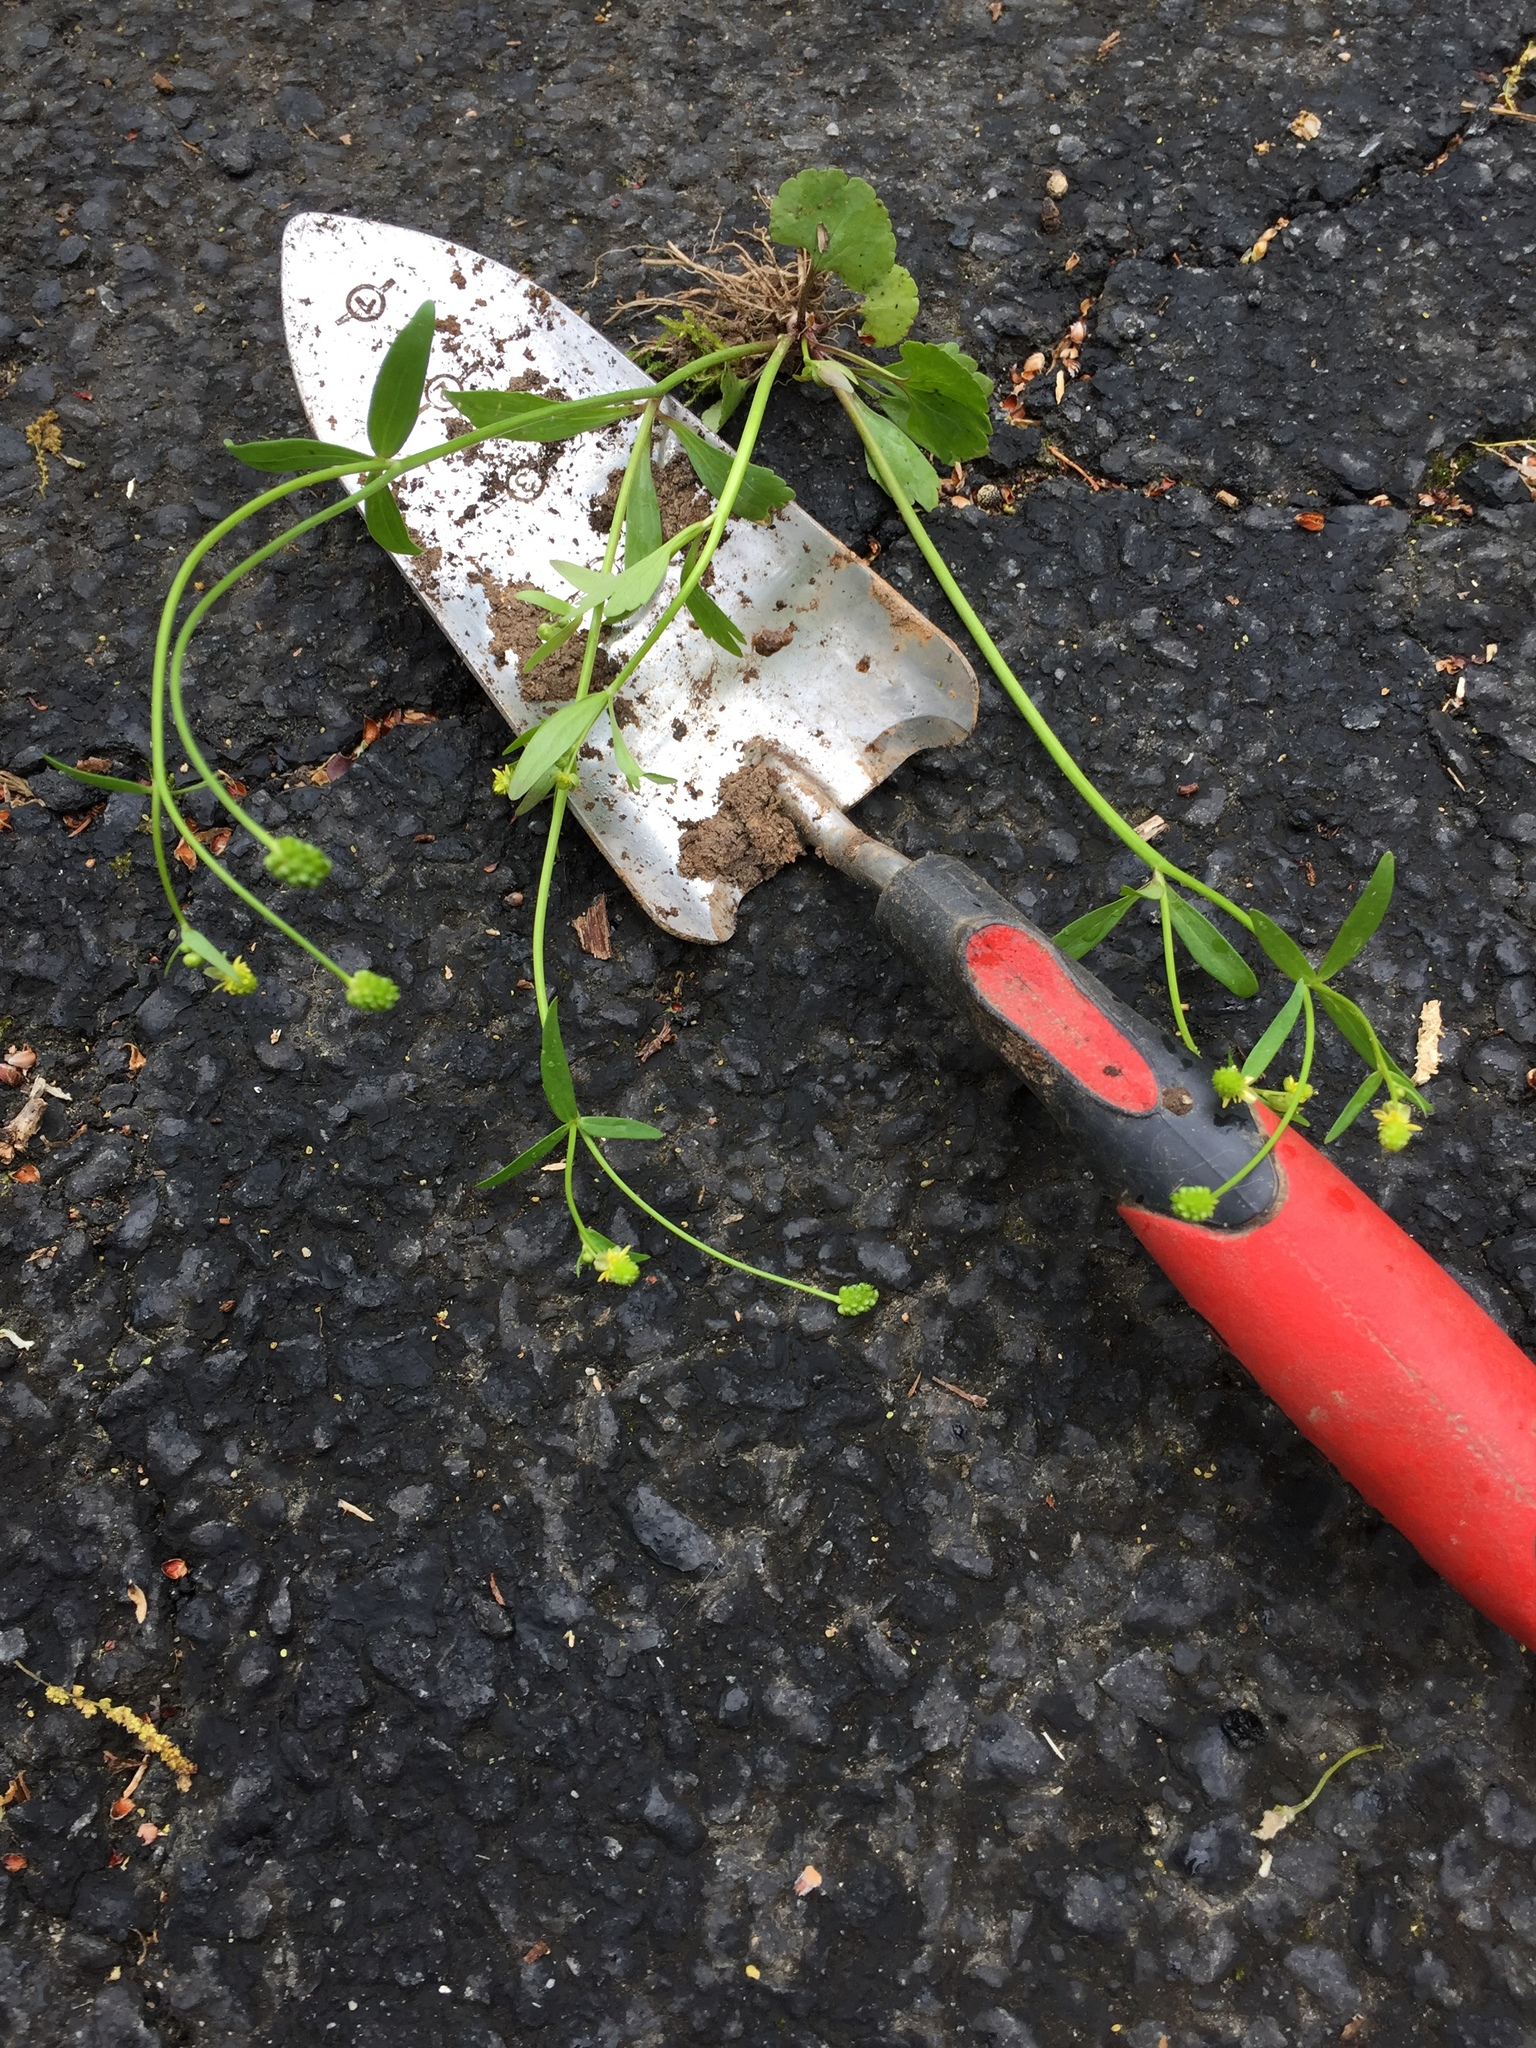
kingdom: Plantae
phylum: Tracheophyta
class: Magnoliopsida
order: Ranunculales
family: Ranunculaceae
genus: Ranunculus
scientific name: Ranunculus abortivus
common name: Early wood buttercup
